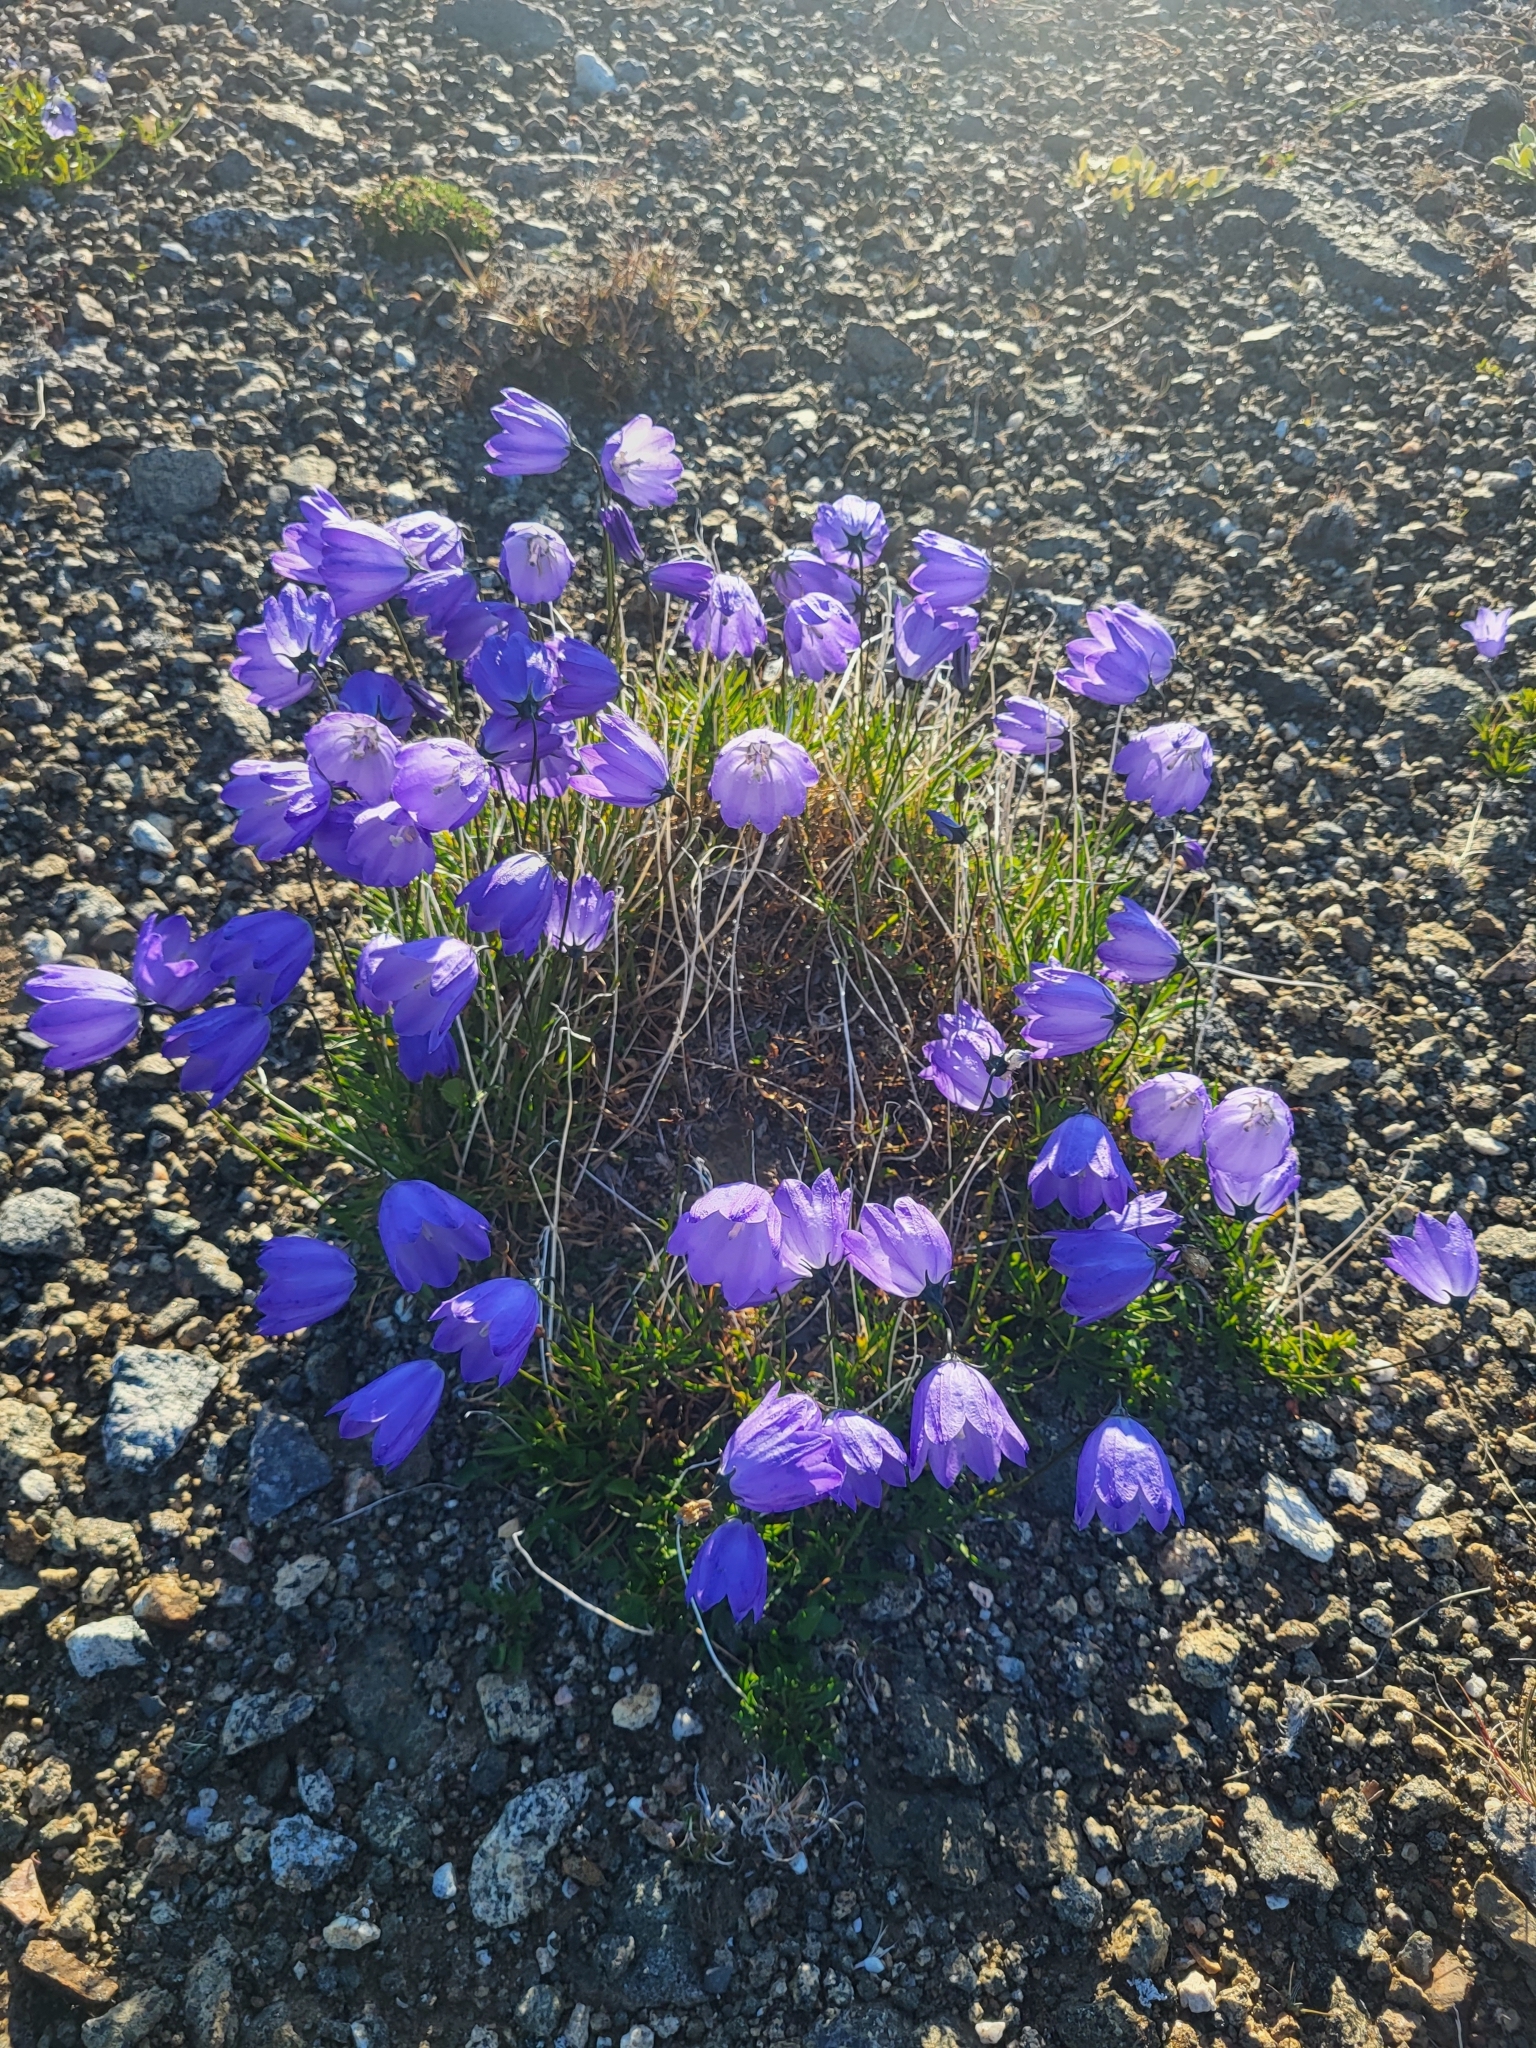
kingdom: Plantae
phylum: Tracheophyta
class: Magnoliopsida
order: Asterales
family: Campanulaceae
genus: Campanula
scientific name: Campanula giesekiana
